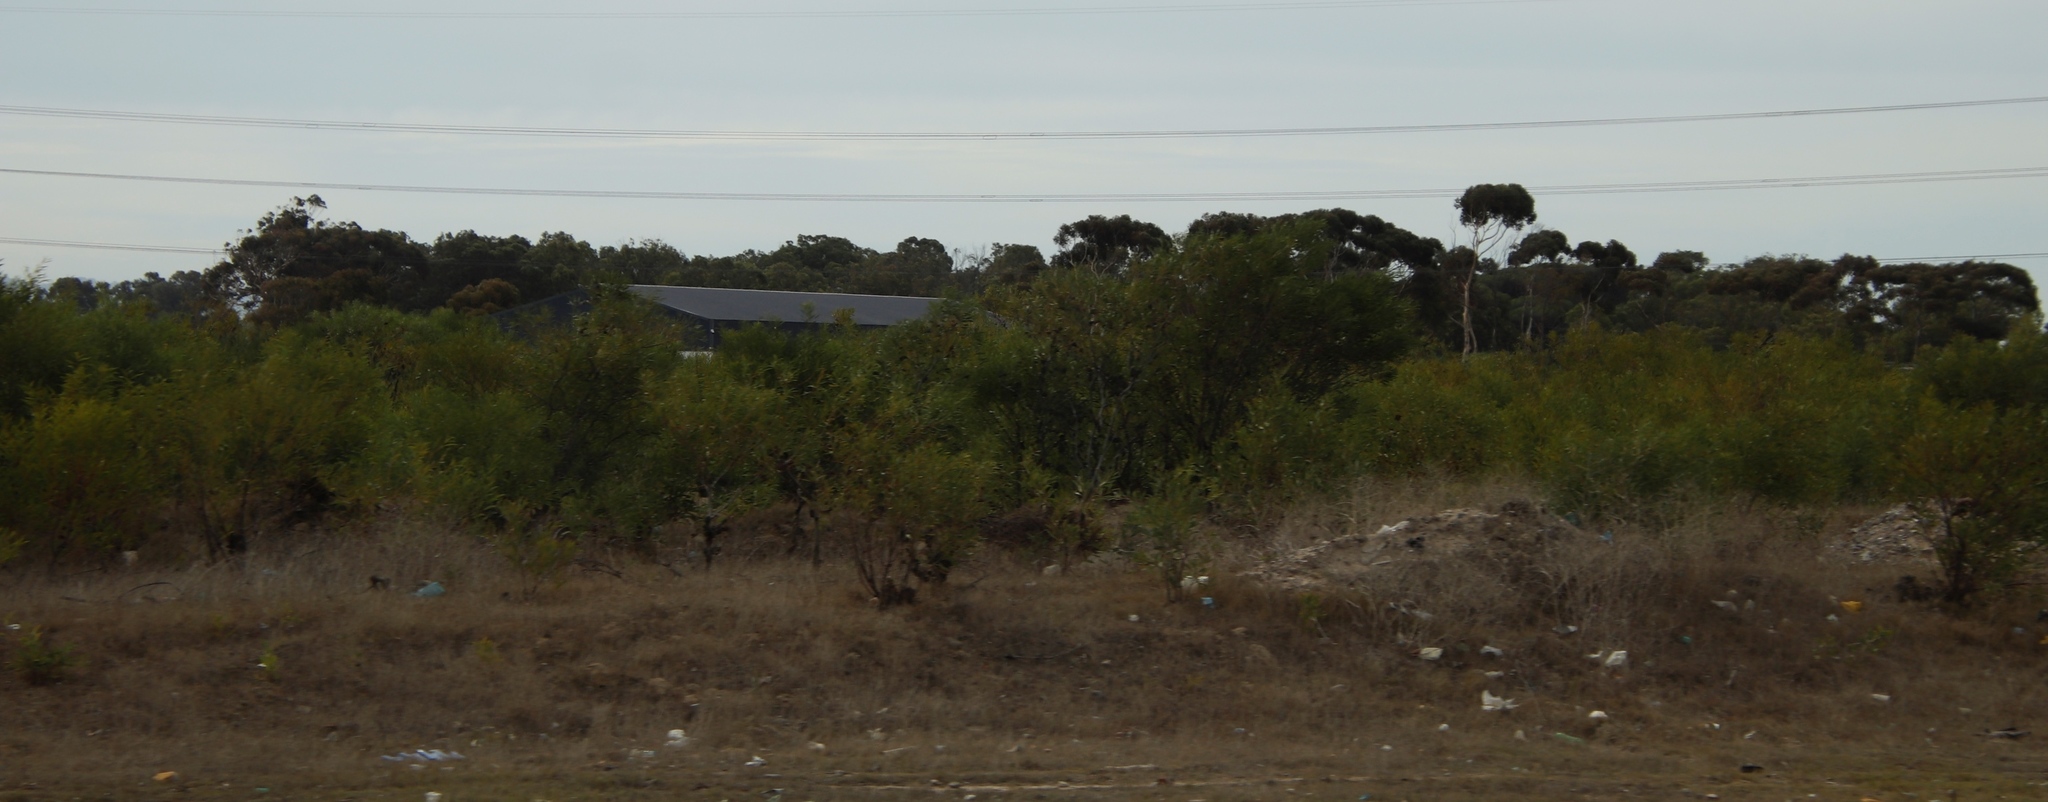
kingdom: Plantae
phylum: Tracheophyta
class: Magnoliopsida
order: Fabales
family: Fabaceae
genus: Acacia
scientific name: Acacia saligna
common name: Orange wattle
